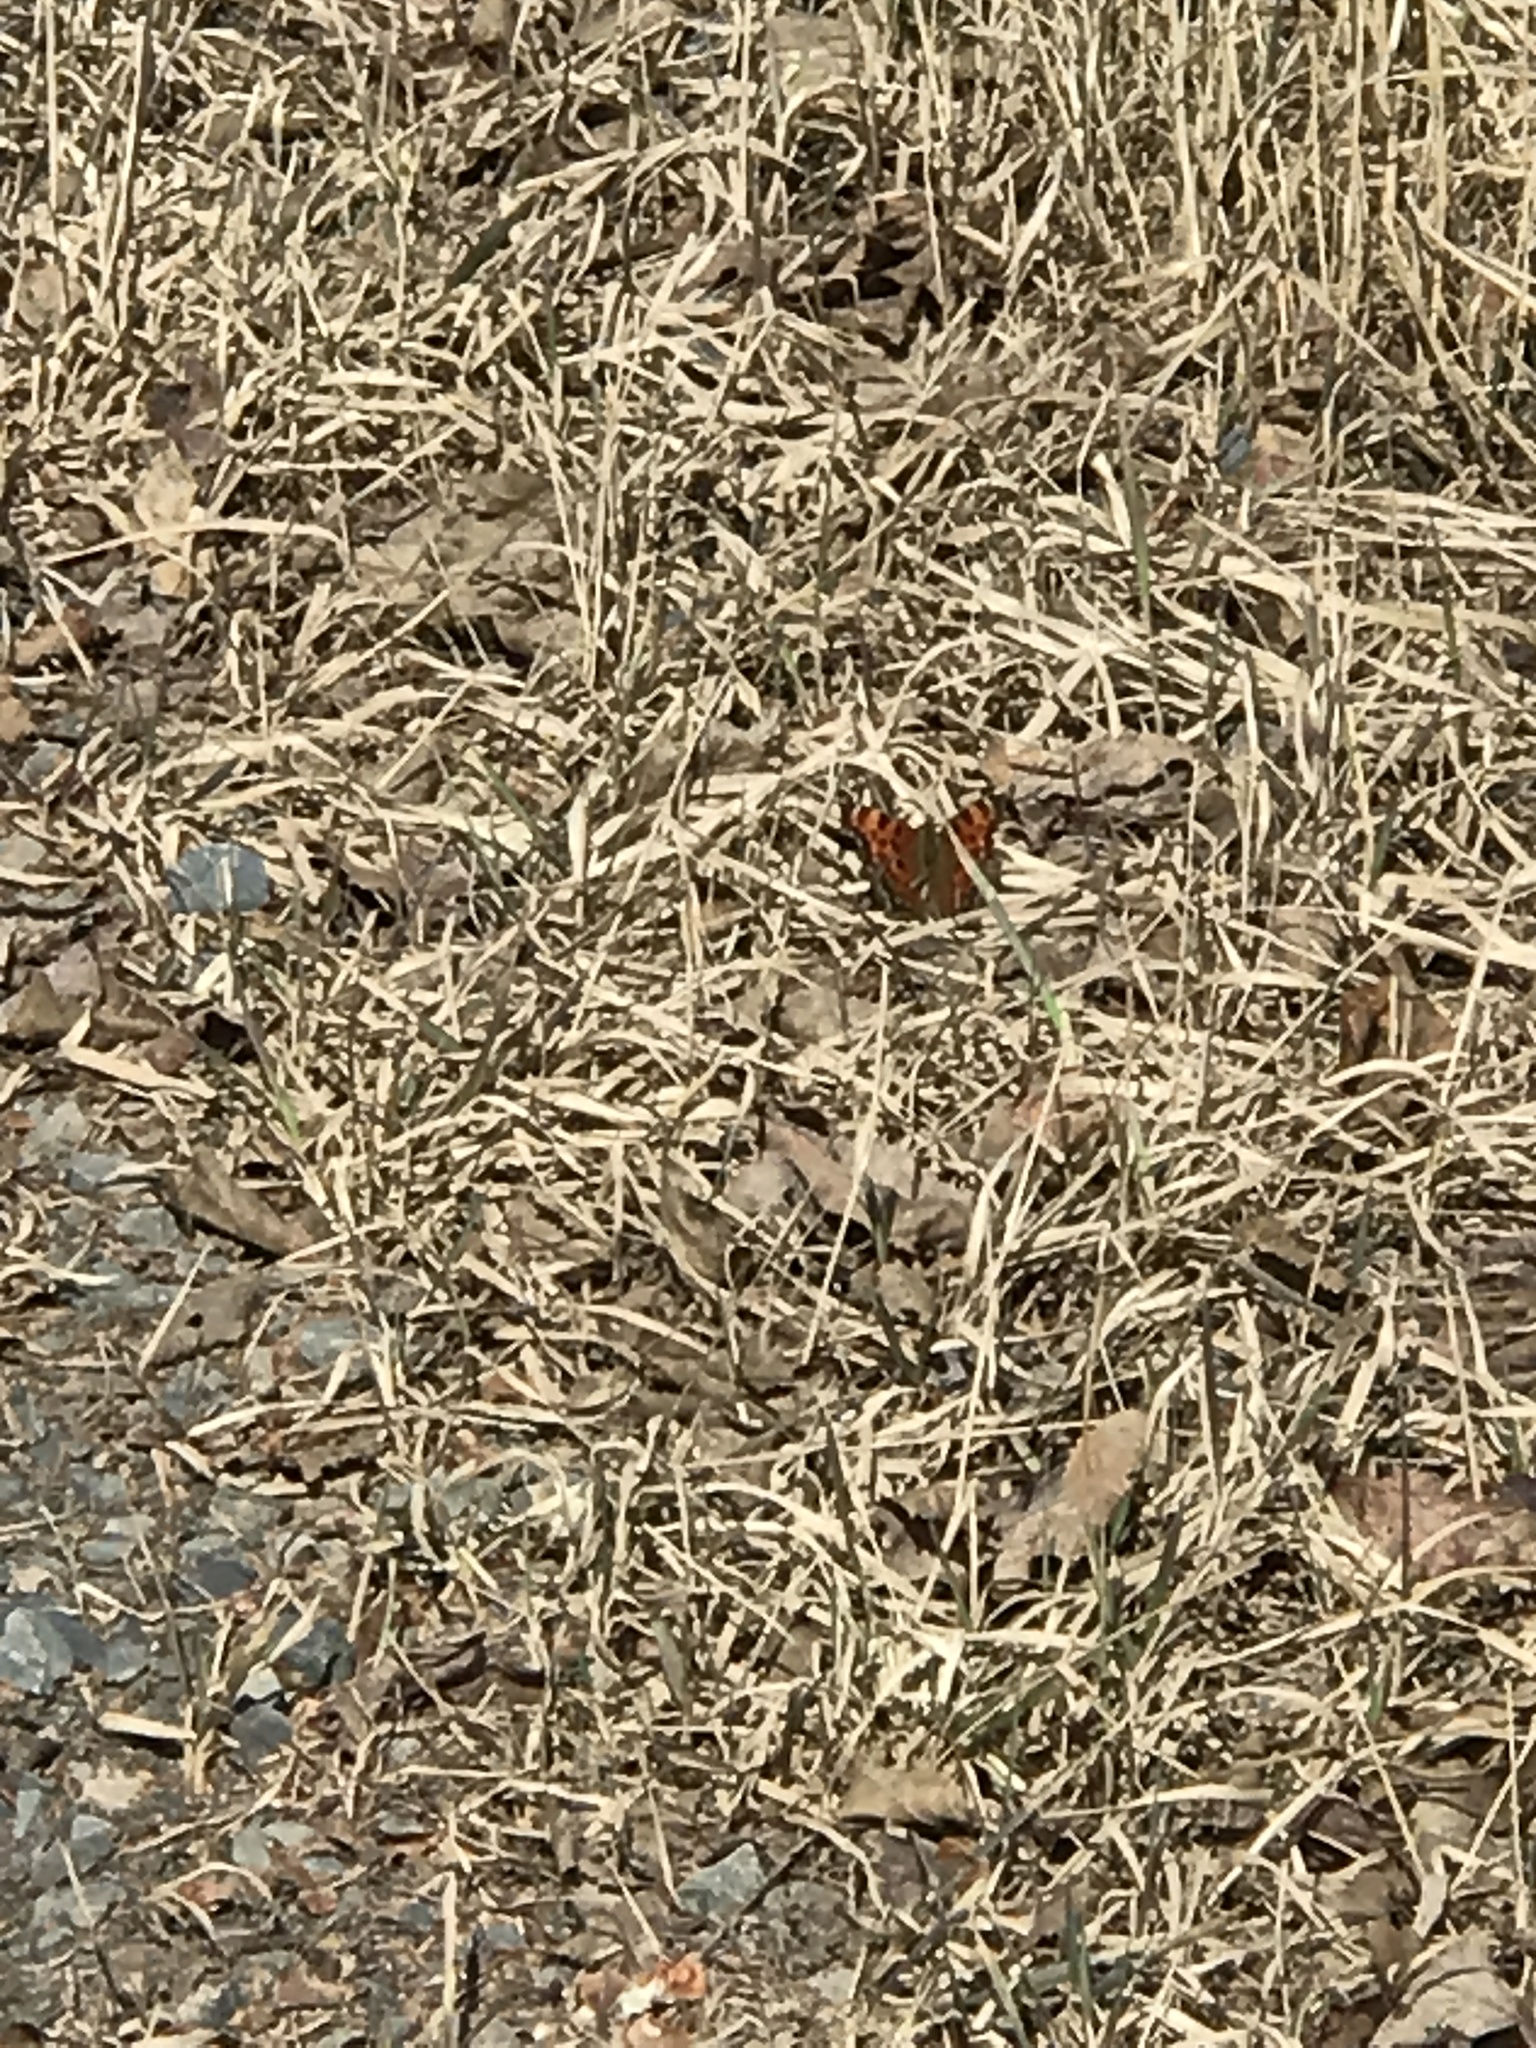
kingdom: Animalia
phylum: Arthropoda
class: Insecta
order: Lepidoptera
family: Nymphalidae
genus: Polygonia
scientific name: Polygonia faunus
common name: Green comma
